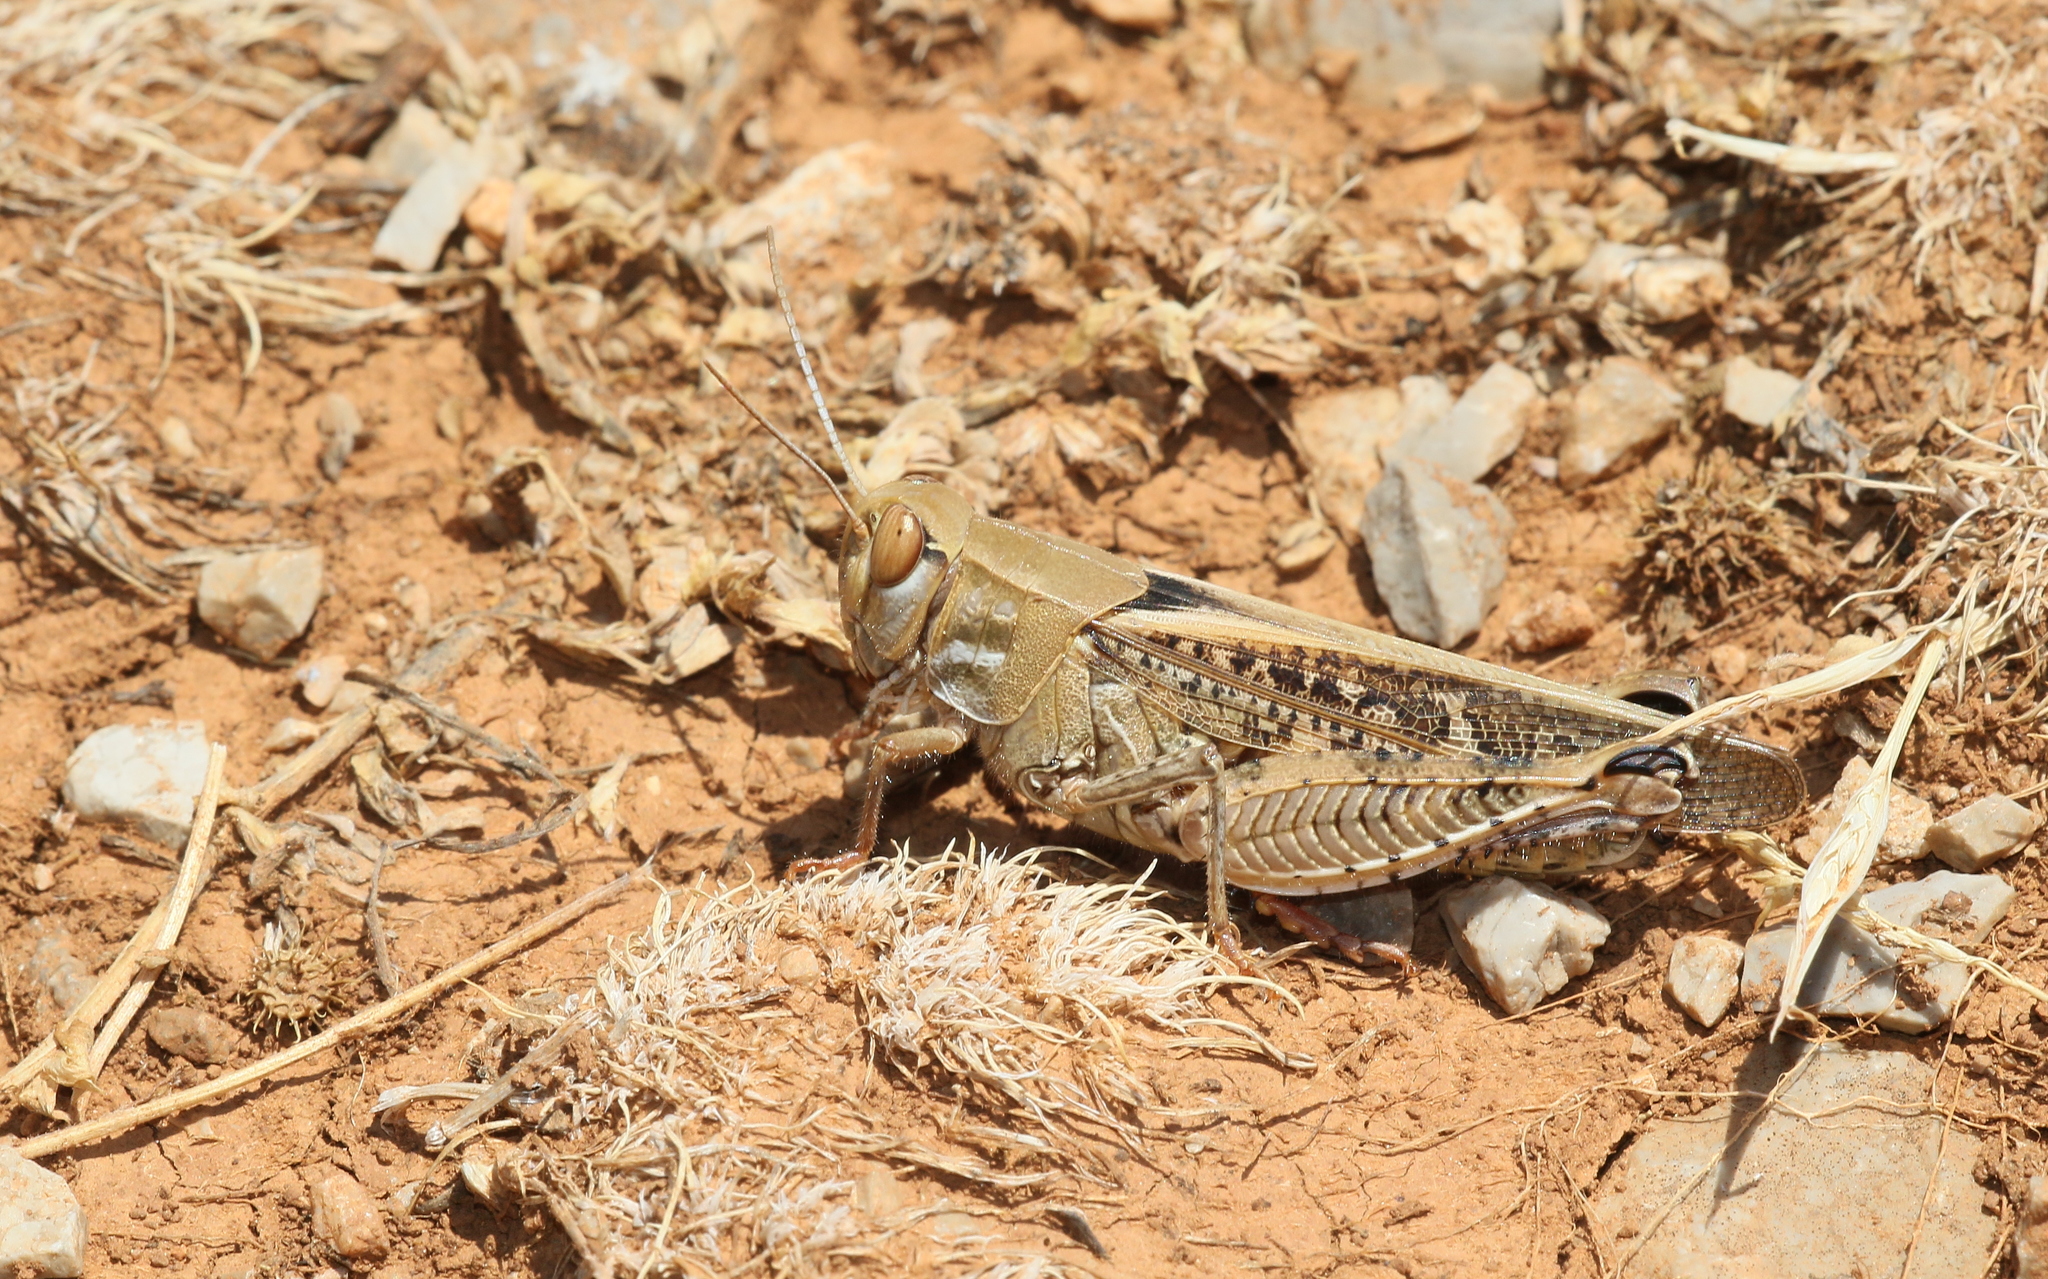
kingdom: Animalia
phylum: Arthropoda
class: Insecta
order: Orthoptera
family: Acrididae
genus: Calliptamus
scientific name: Calliptamus
